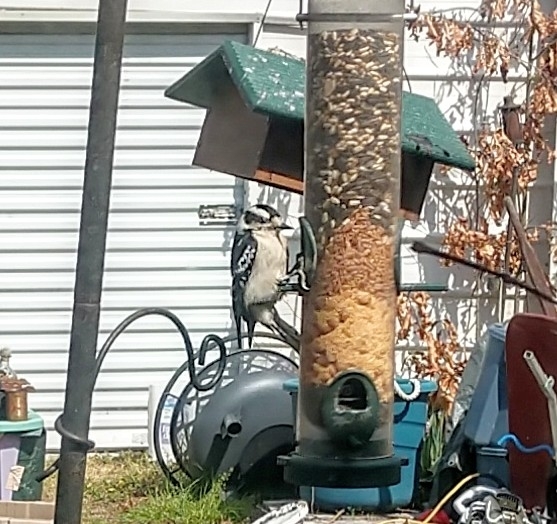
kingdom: Animalia
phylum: Chordata
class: Aves
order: Piciformes
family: Picidae
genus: Dryobates
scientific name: Dryobates pubescens
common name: Downy woodpecker
